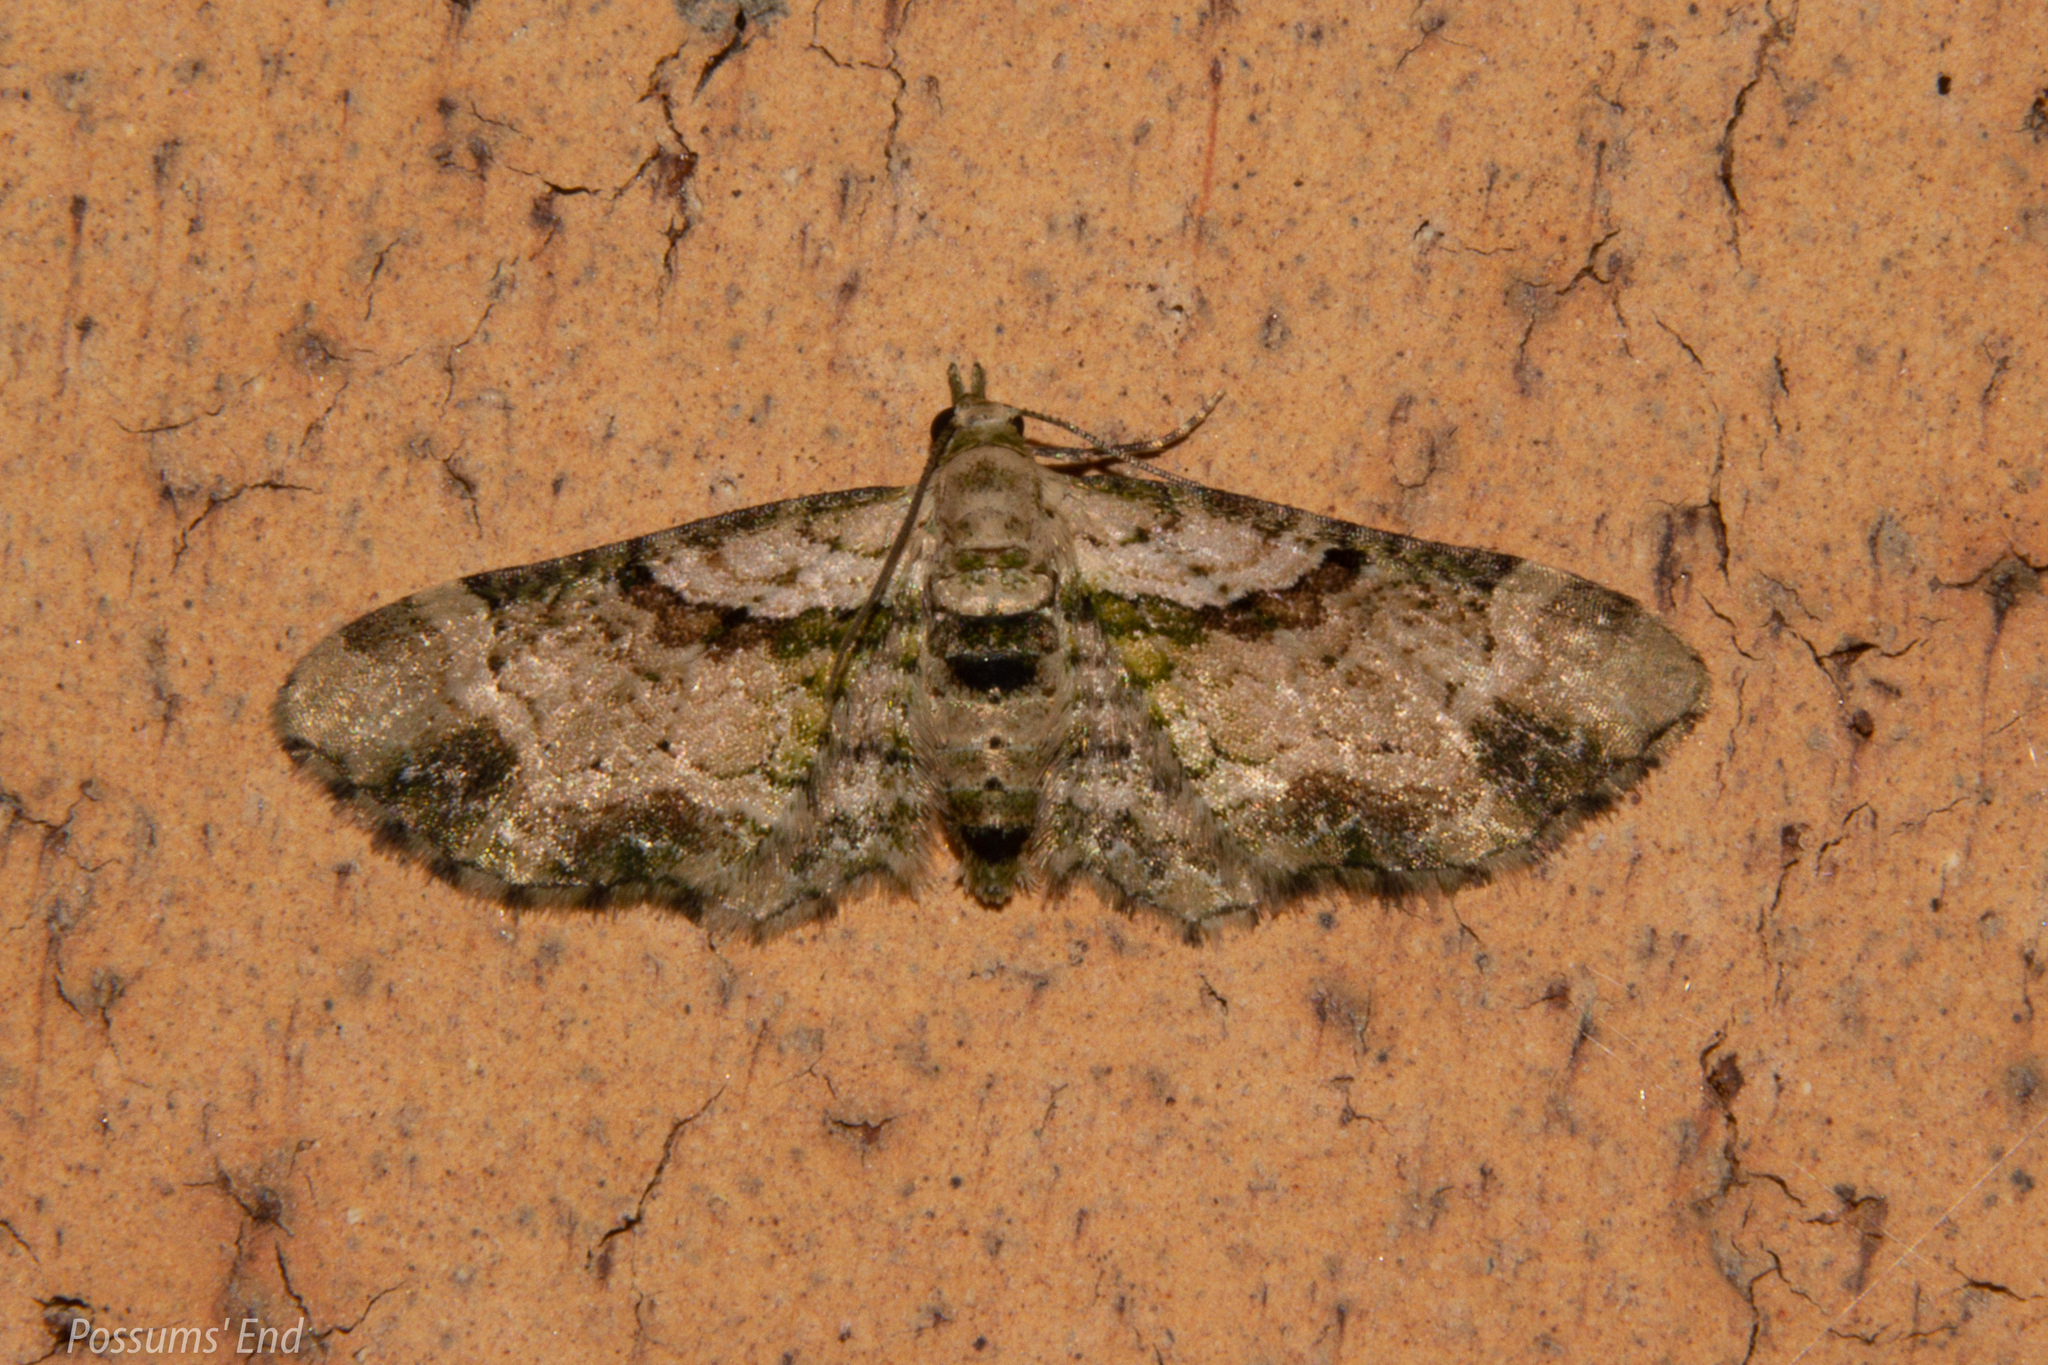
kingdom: Animalia
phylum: Arthropoda
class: Insecta
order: Lepidoptera
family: Geometridae
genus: Chloroclystis
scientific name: Chloroclystis
